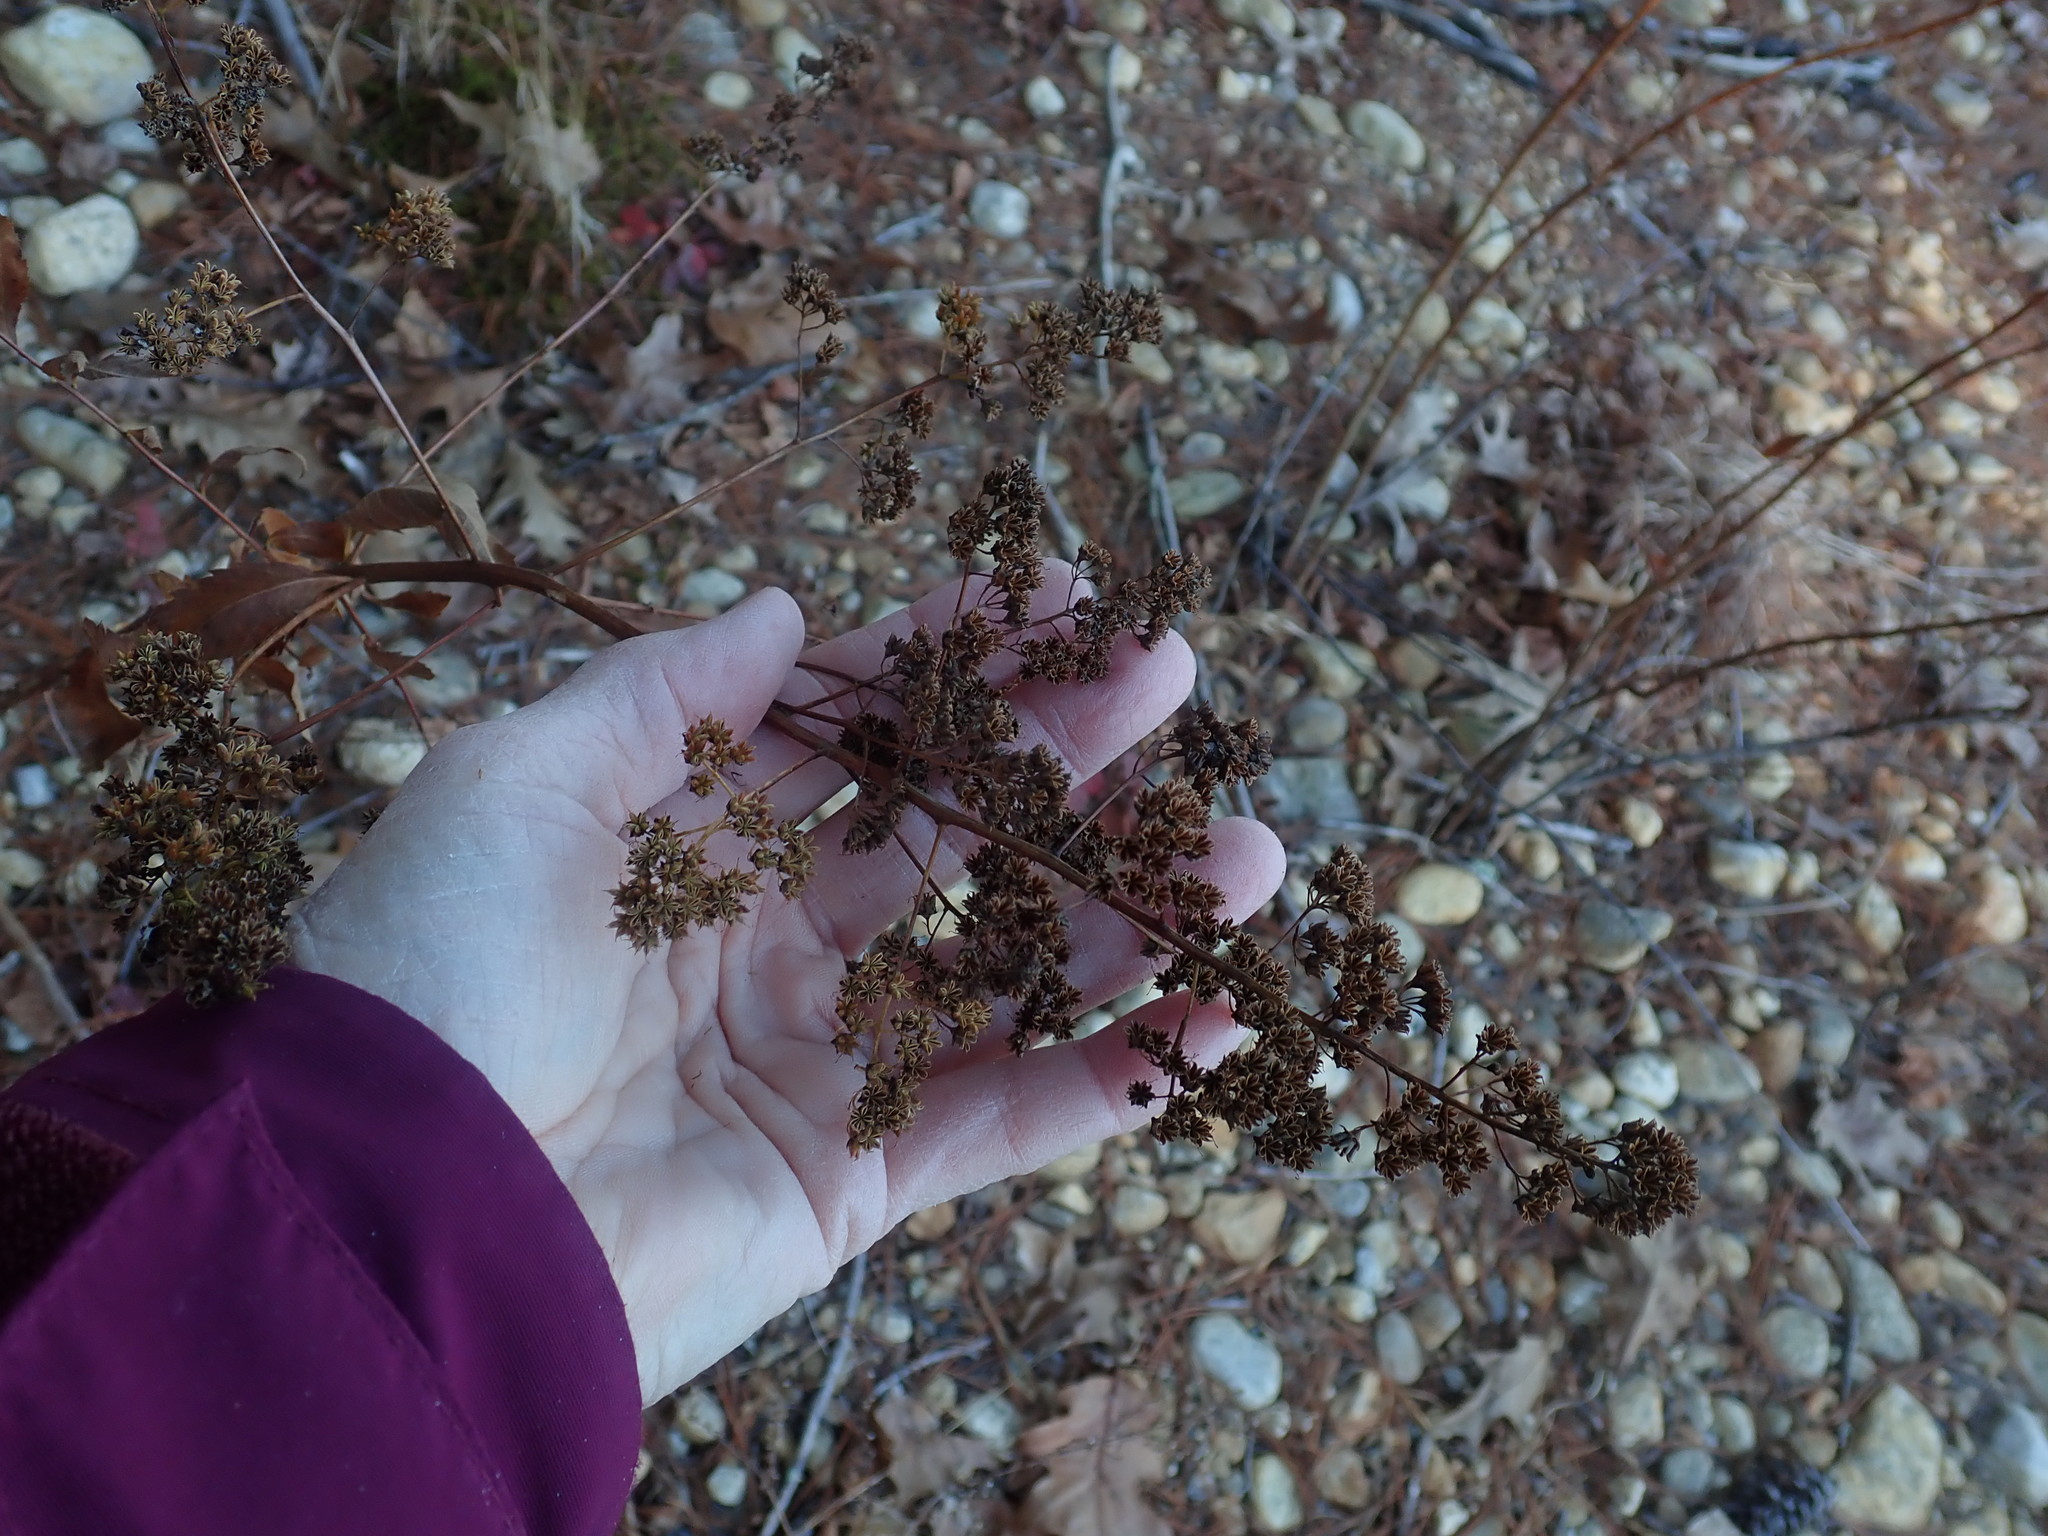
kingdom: Plantae
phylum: Tracheophyta
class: Magnoliopsida
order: Rosales
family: Rosaceae
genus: Spiraea
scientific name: Spiraea alba
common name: Pale bridewort
